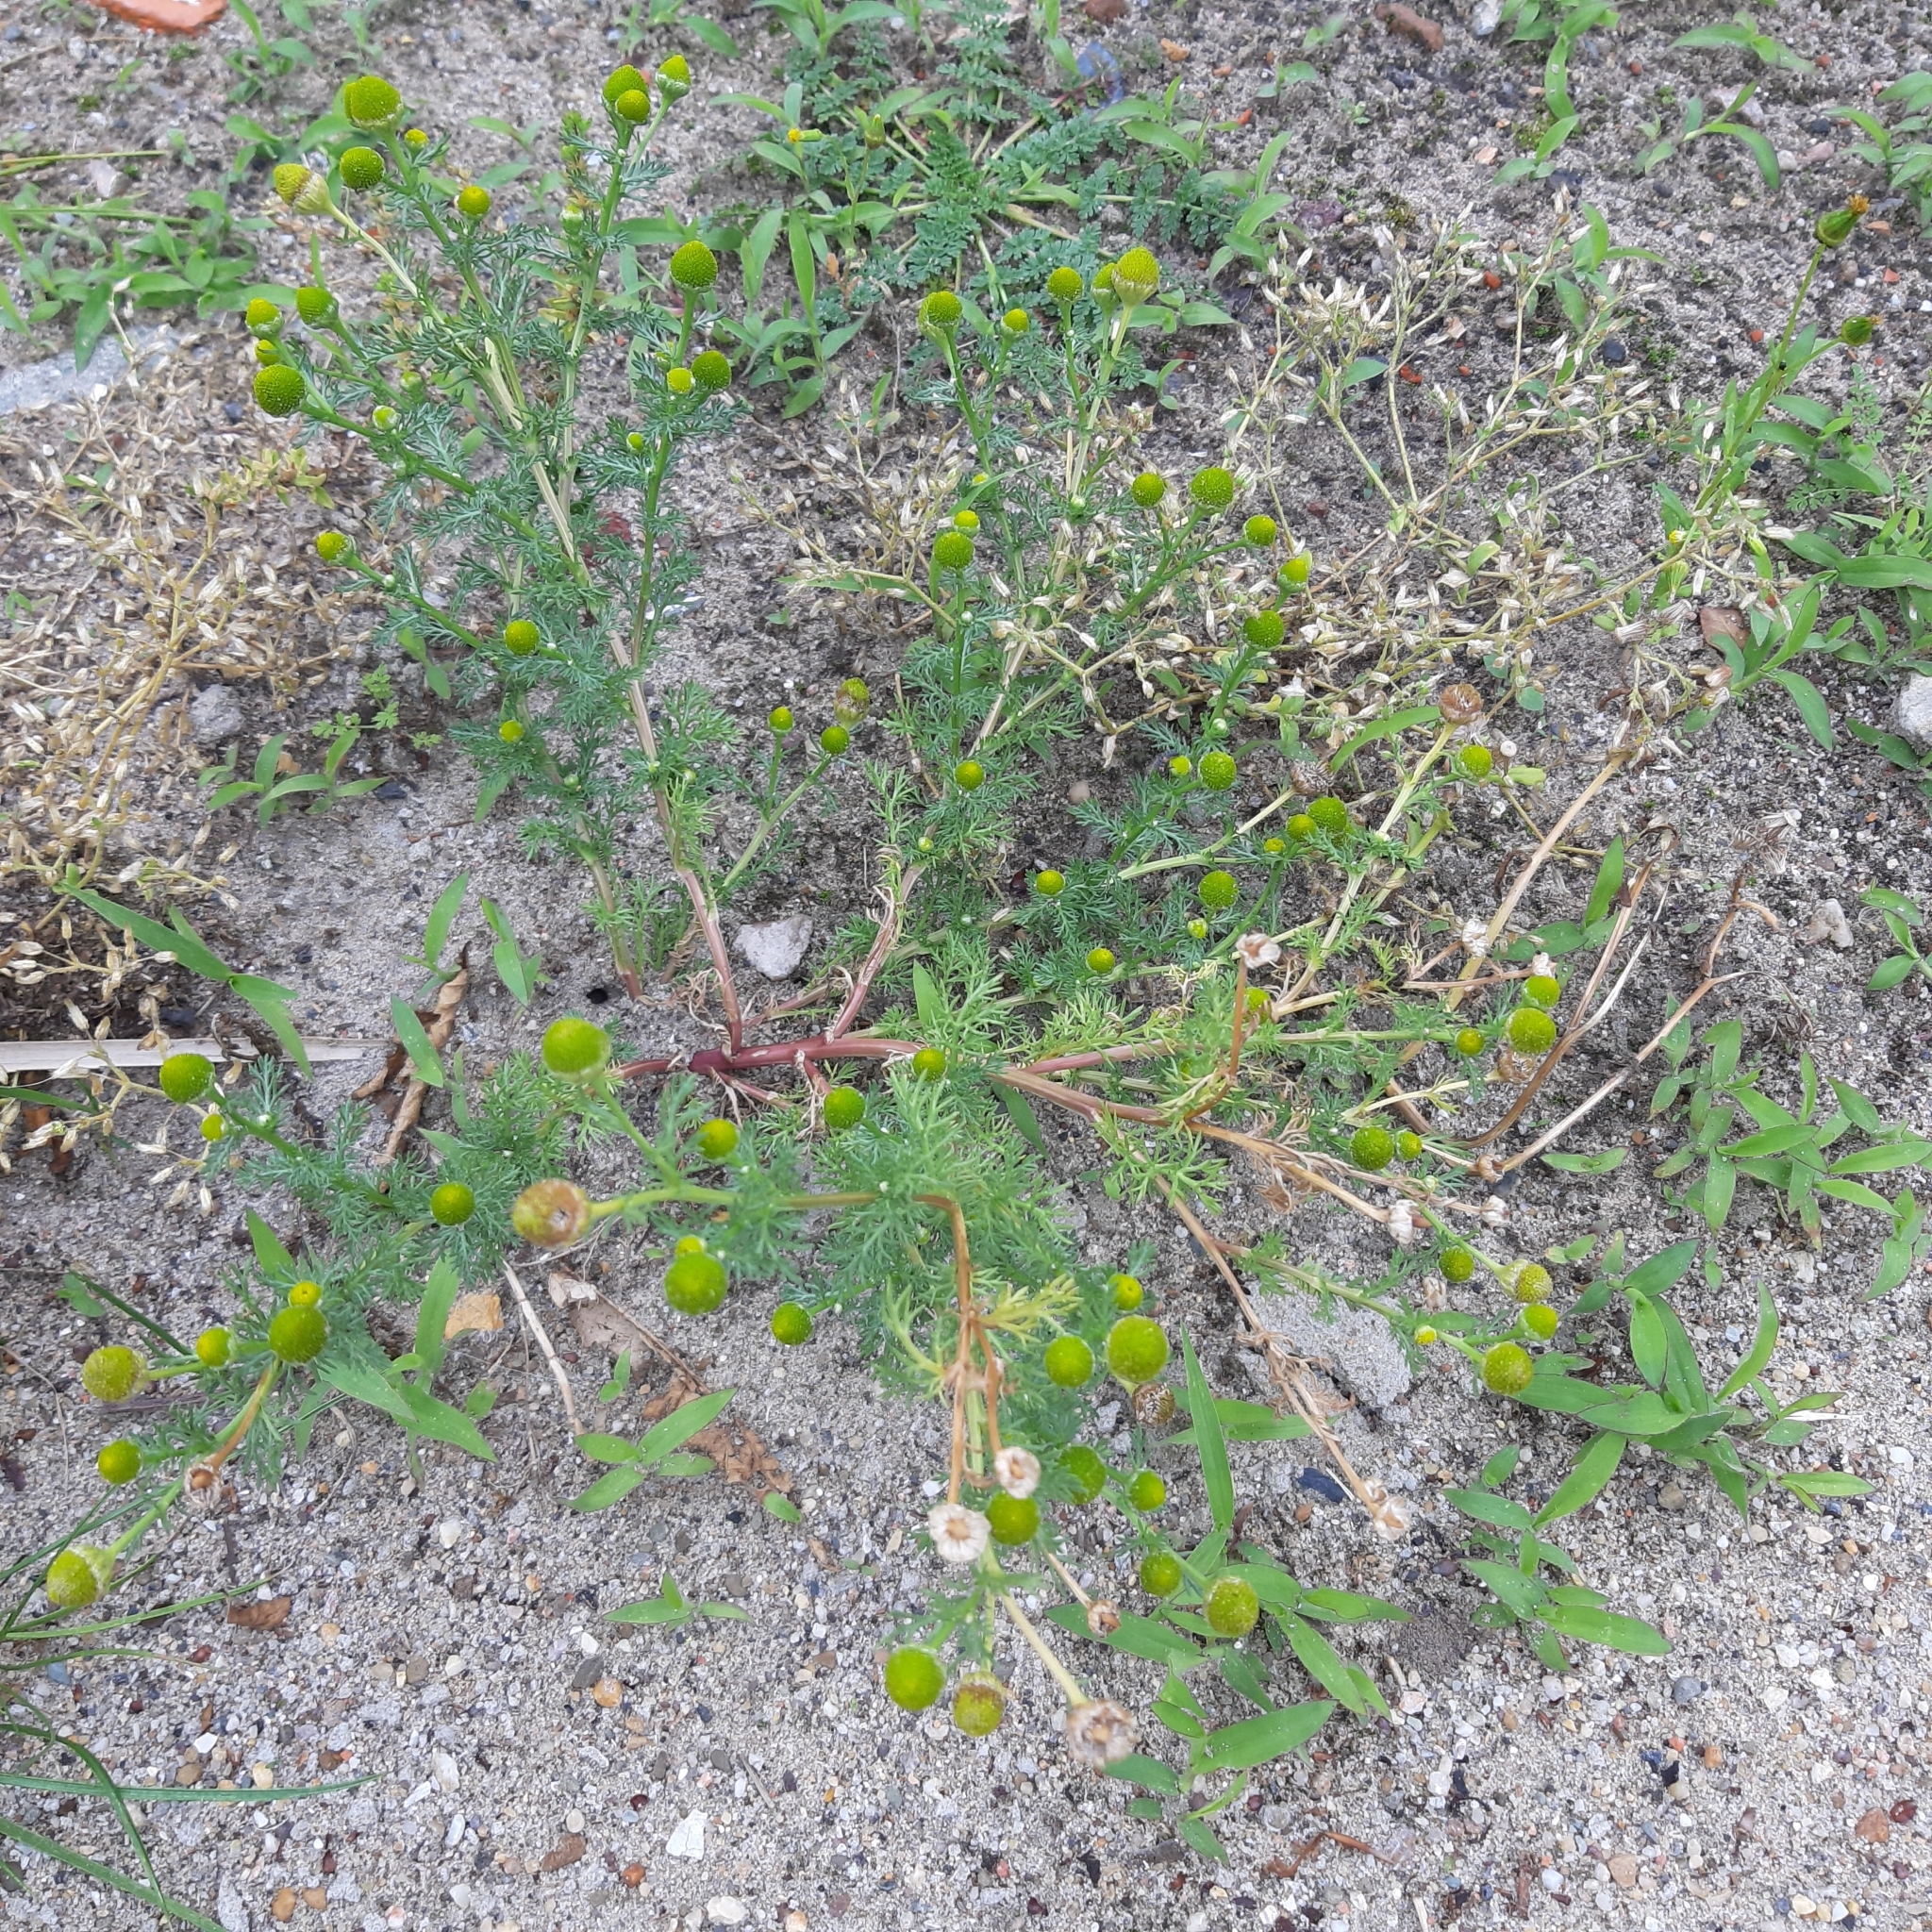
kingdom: Plantae
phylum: Tracheophyta
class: Magnoliopsida
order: Asterales
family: Asteraceae
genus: Matricaria
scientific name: Matricaria discoidea
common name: Disc mayweed
